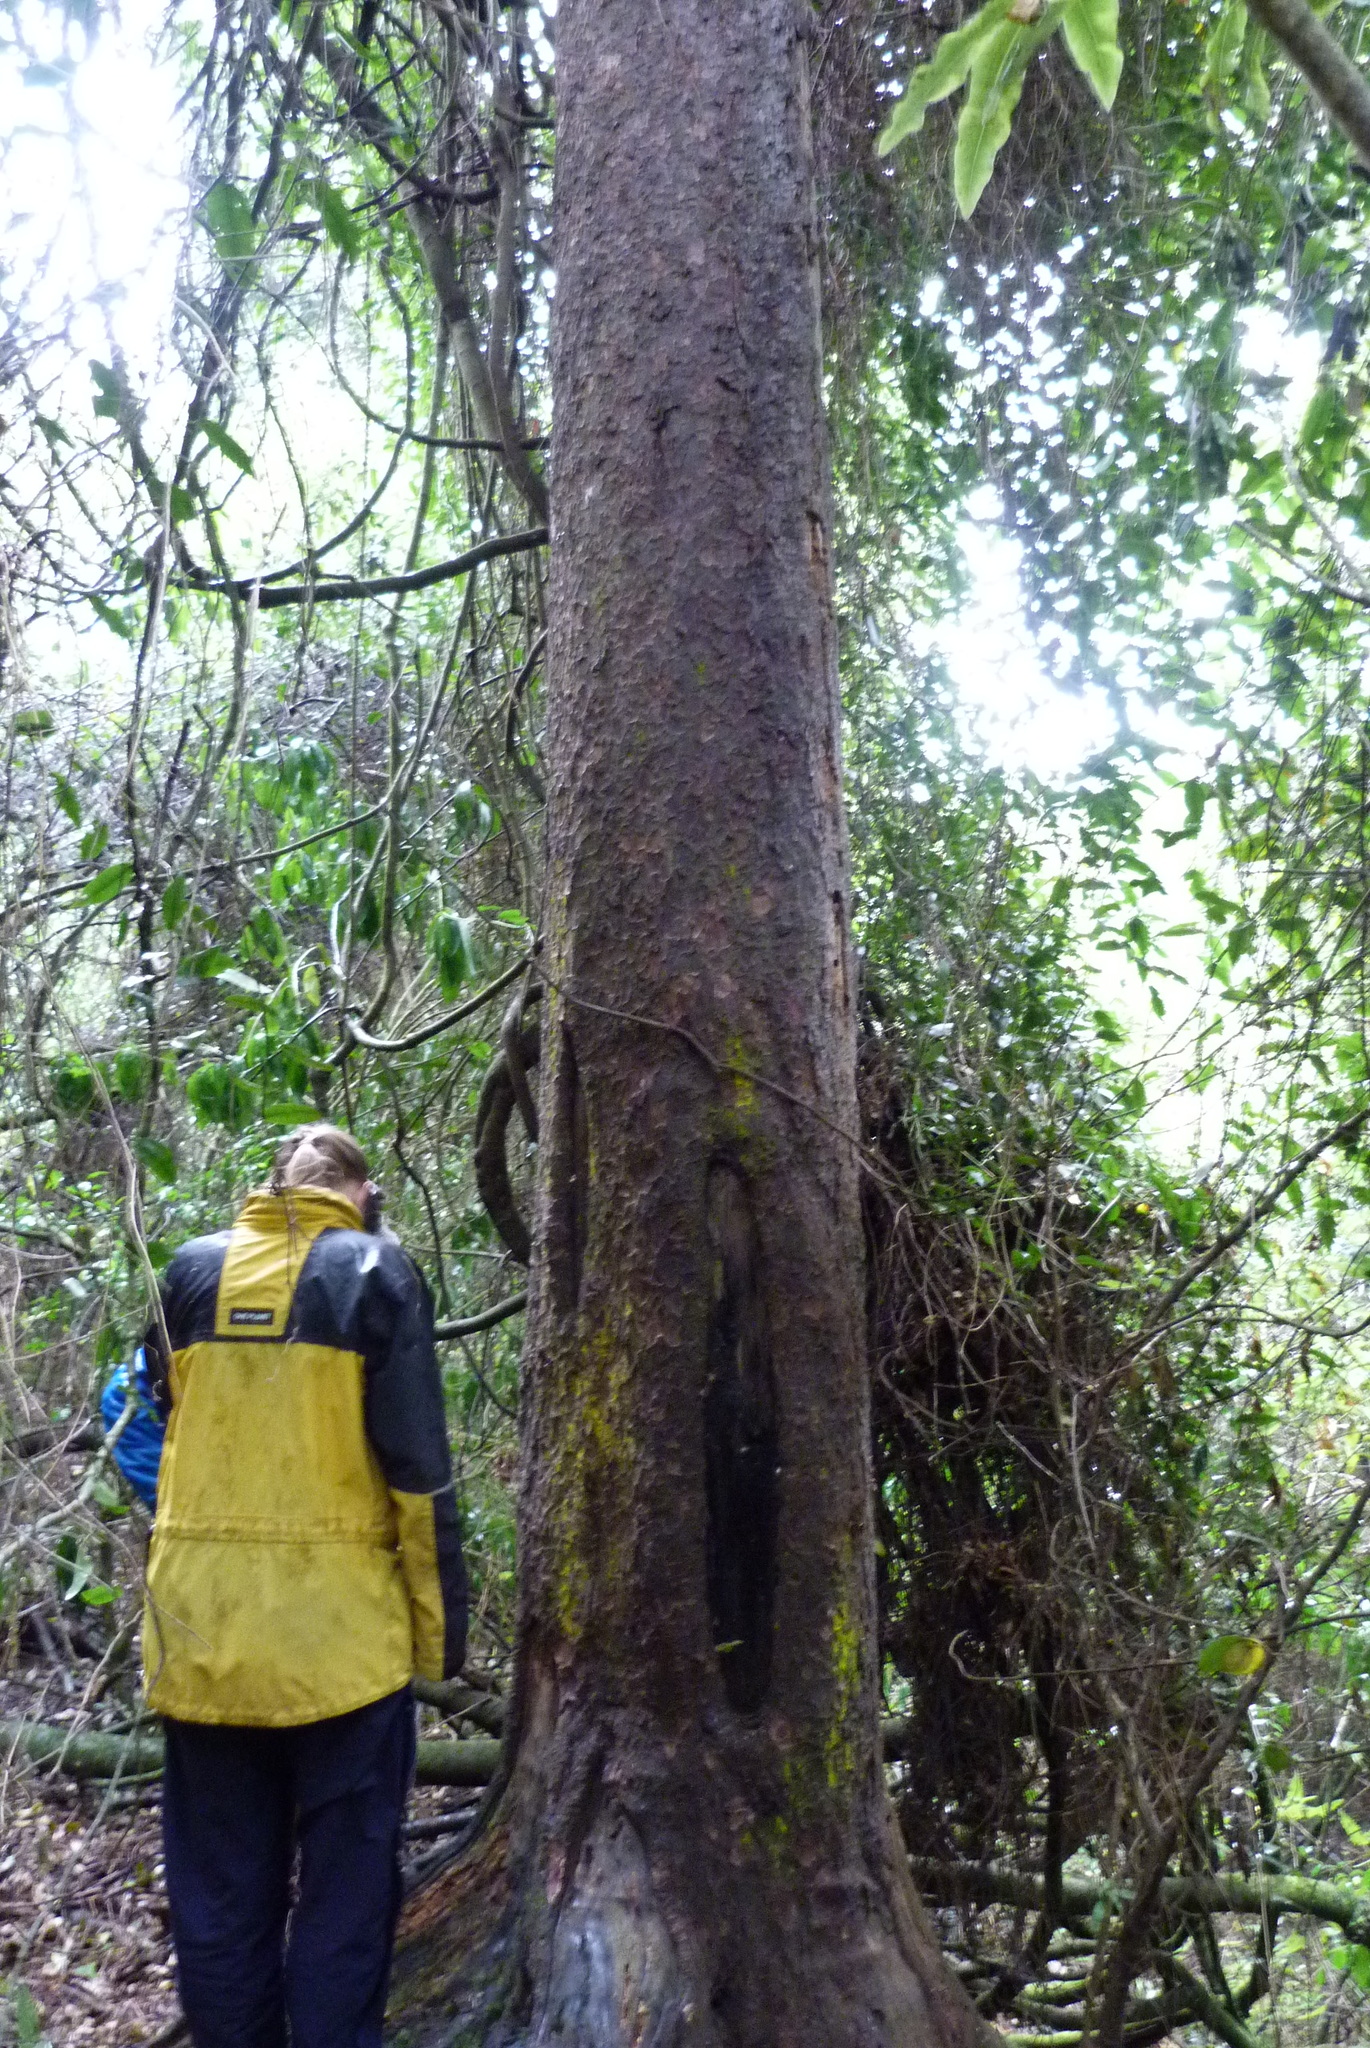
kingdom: Plantae
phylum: Tracheophyta
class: Pinopsida
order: Pinales
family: Podocarpaceae
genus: Prumnopitys
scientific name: Prumnopitys taxifolia
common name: Matai
